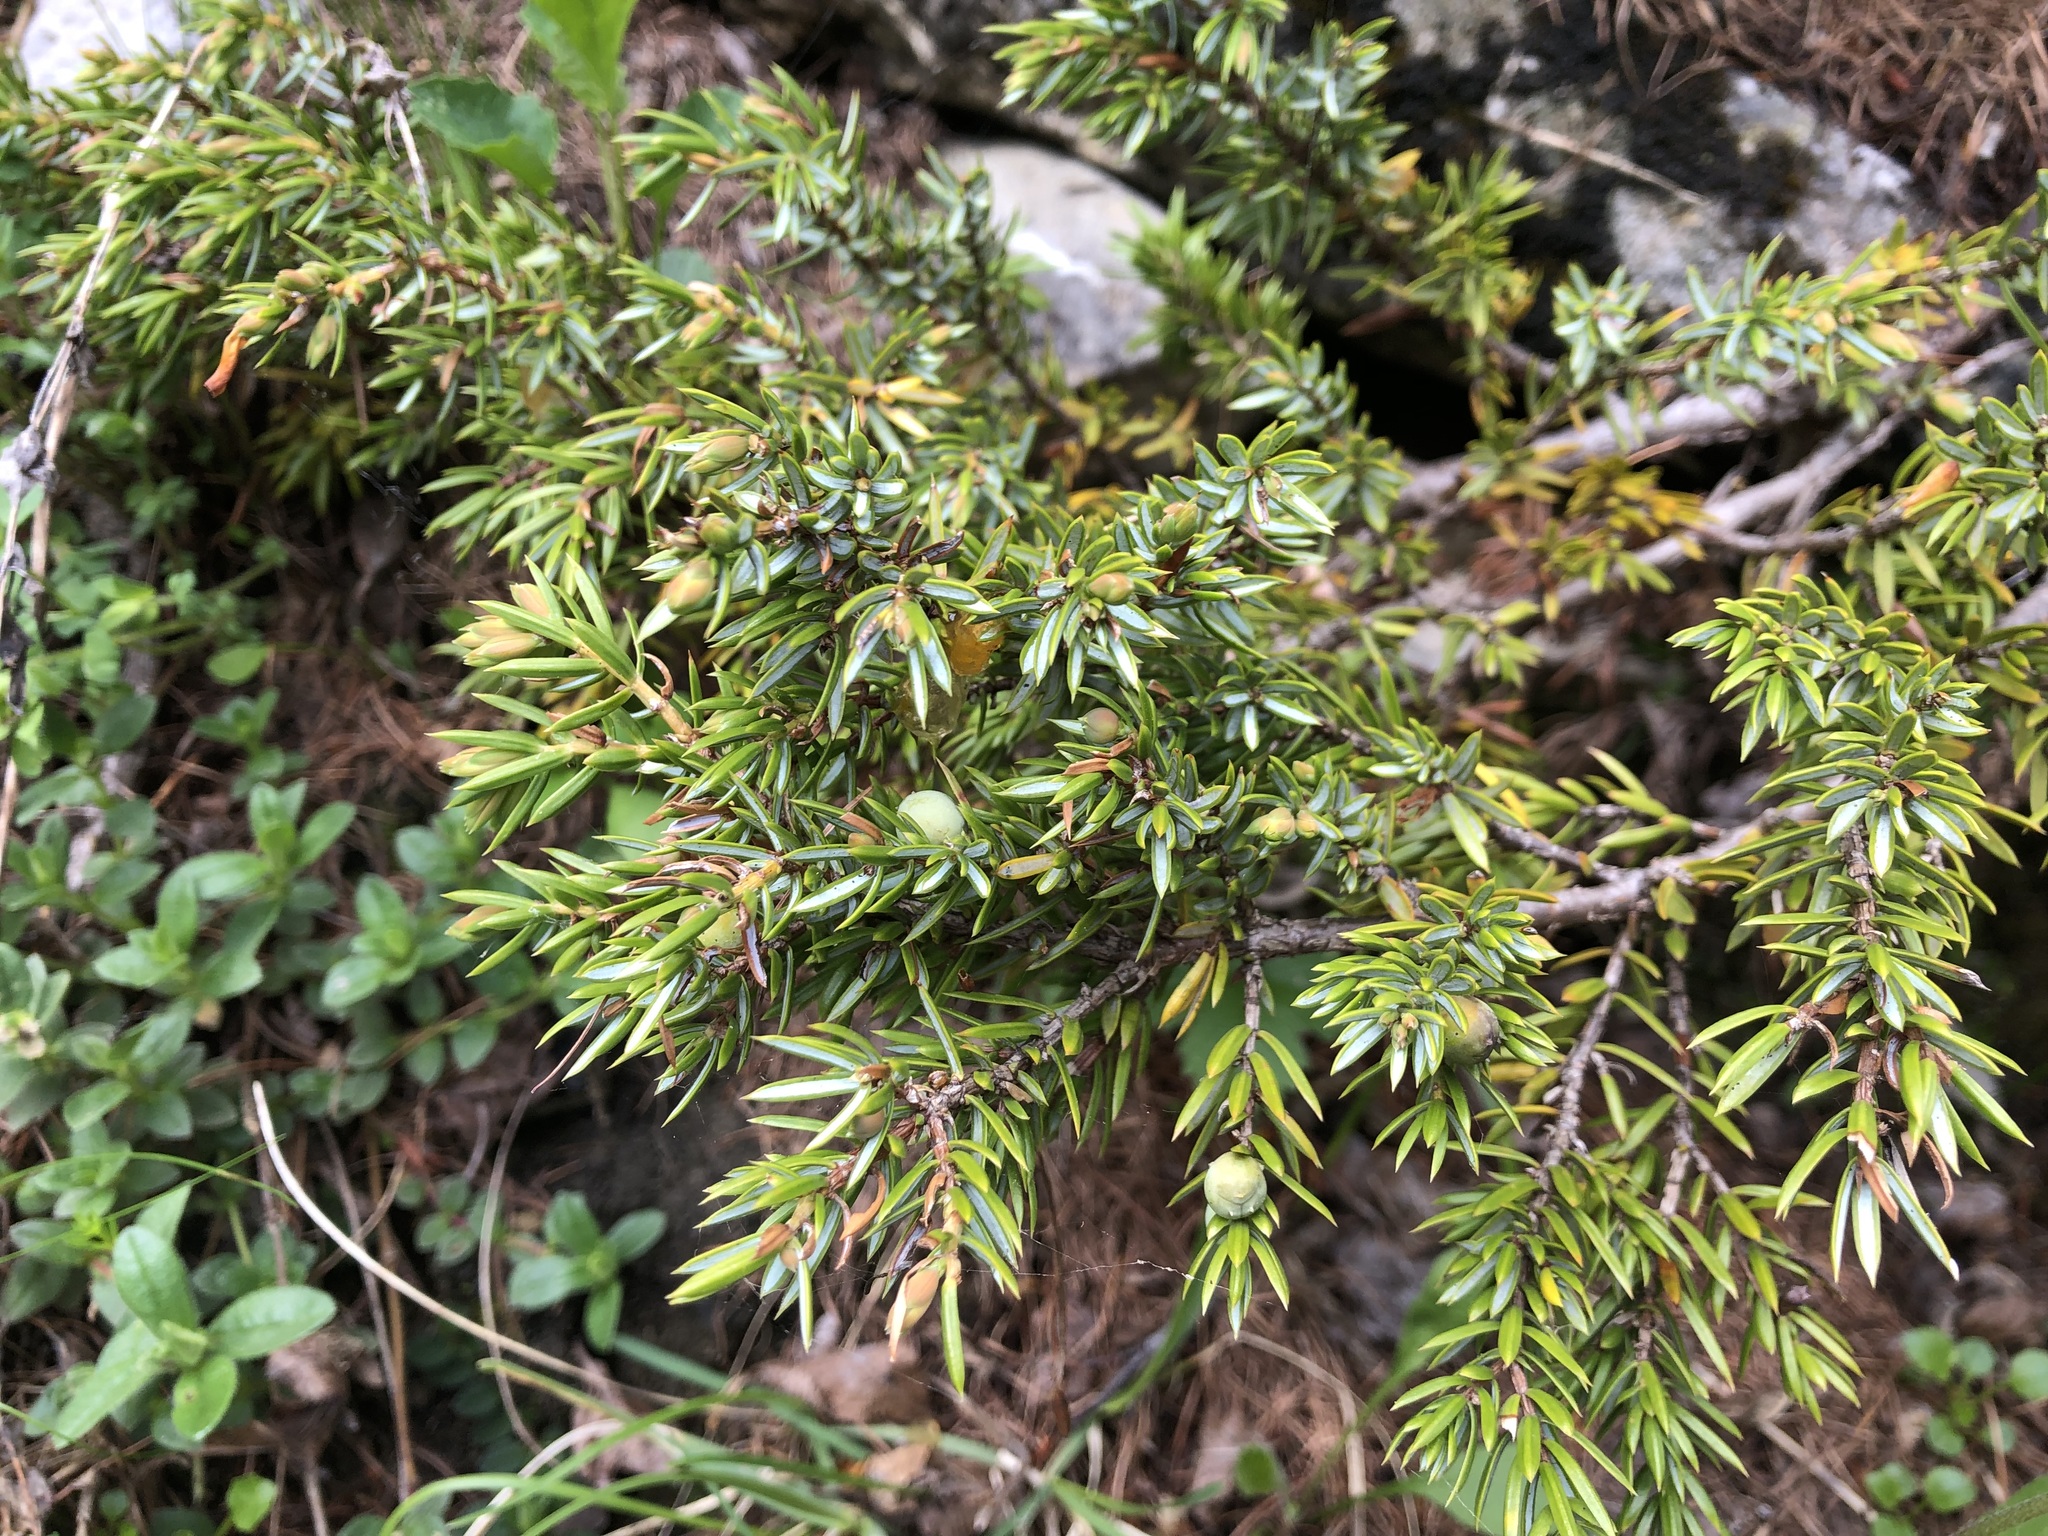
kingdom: Plantae
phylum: Tracheophyta
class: Pinopsida
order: Pinales
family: Cupressaceae
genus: Juniperus
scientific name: Juniperus communis
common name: Common juniper
